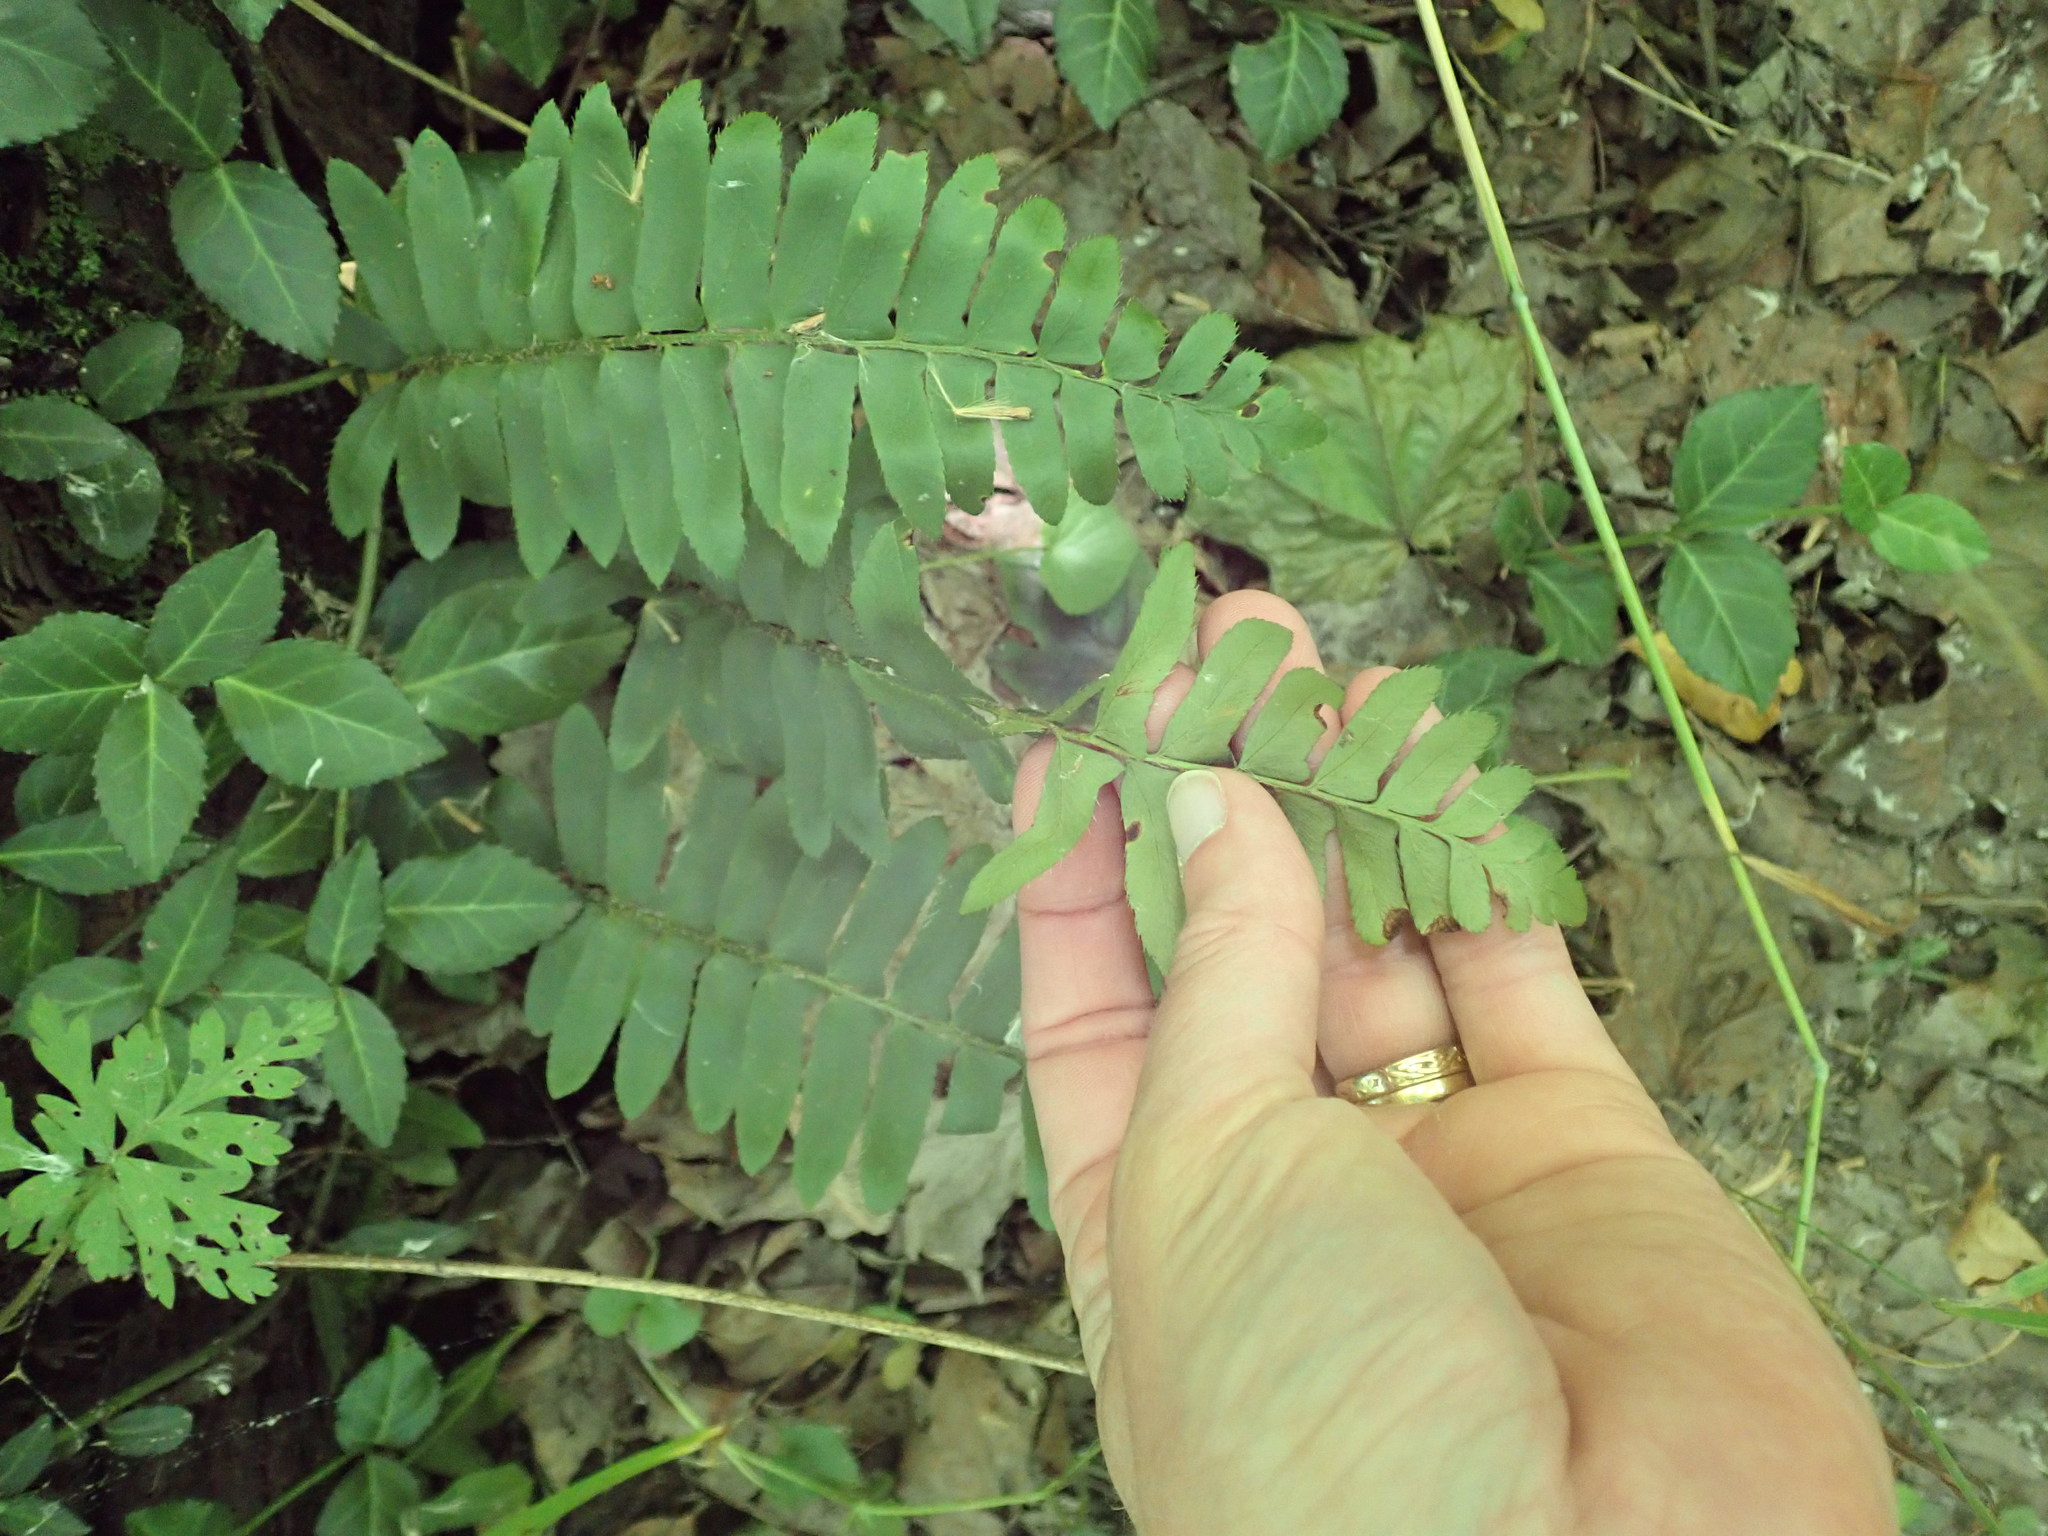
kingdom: Plantae
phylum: Tracheophyta
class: Polypodiopsida
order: Polypodiales
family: Dryopteridaceae
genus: Polystichum
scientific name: Polystichum acrostichoides
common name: Christmas fern
